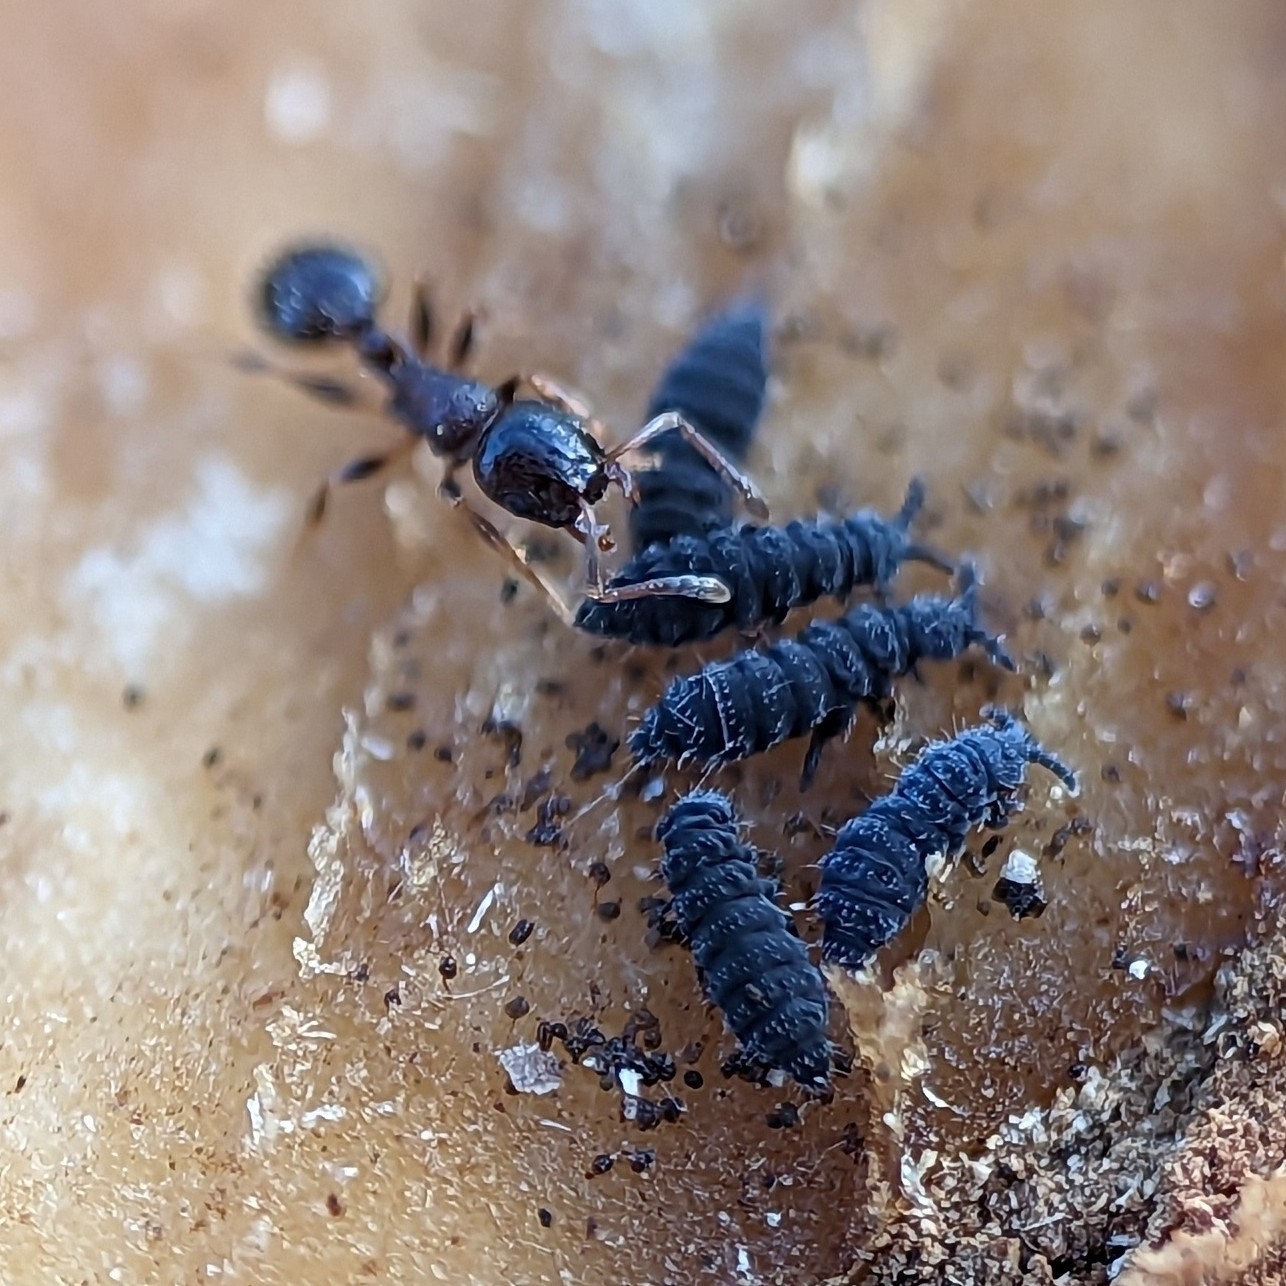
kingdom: Animalia
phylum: Arthropoda
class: Insecta
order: Hymenoptera
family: Formicidae
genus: Temnothorax
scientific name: Temnothorax longispinosus
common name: Long-spined acorn ant
